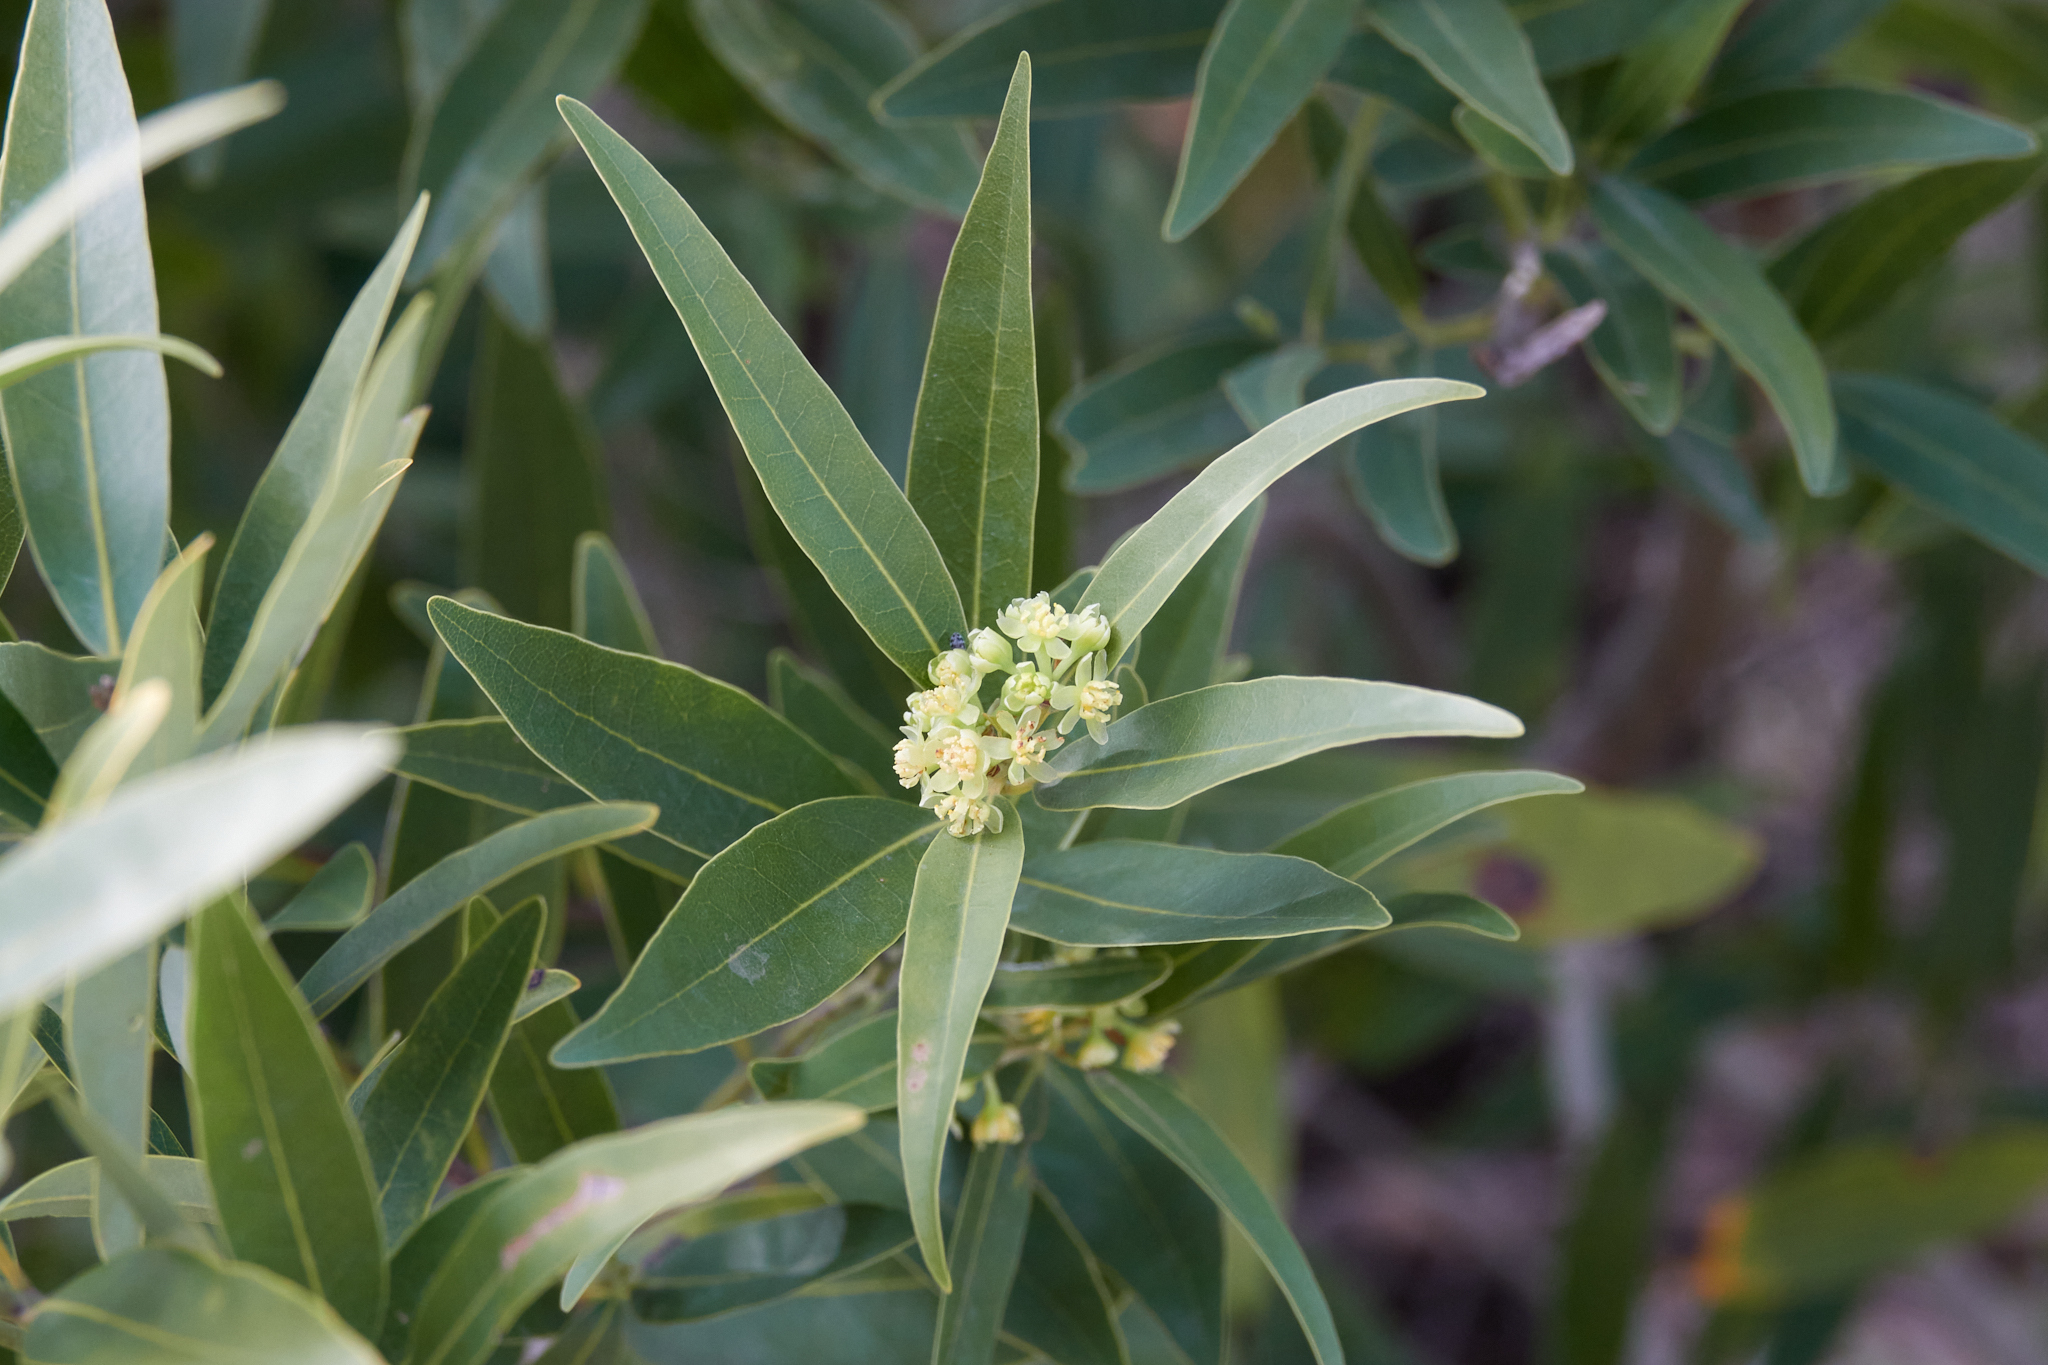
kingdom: Plantae
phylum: Tracheophyta
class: Magnoliopsida
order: Laurales
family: Lauraceae
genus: Umbellularia
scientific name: Umbellularia californica
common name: California bay
